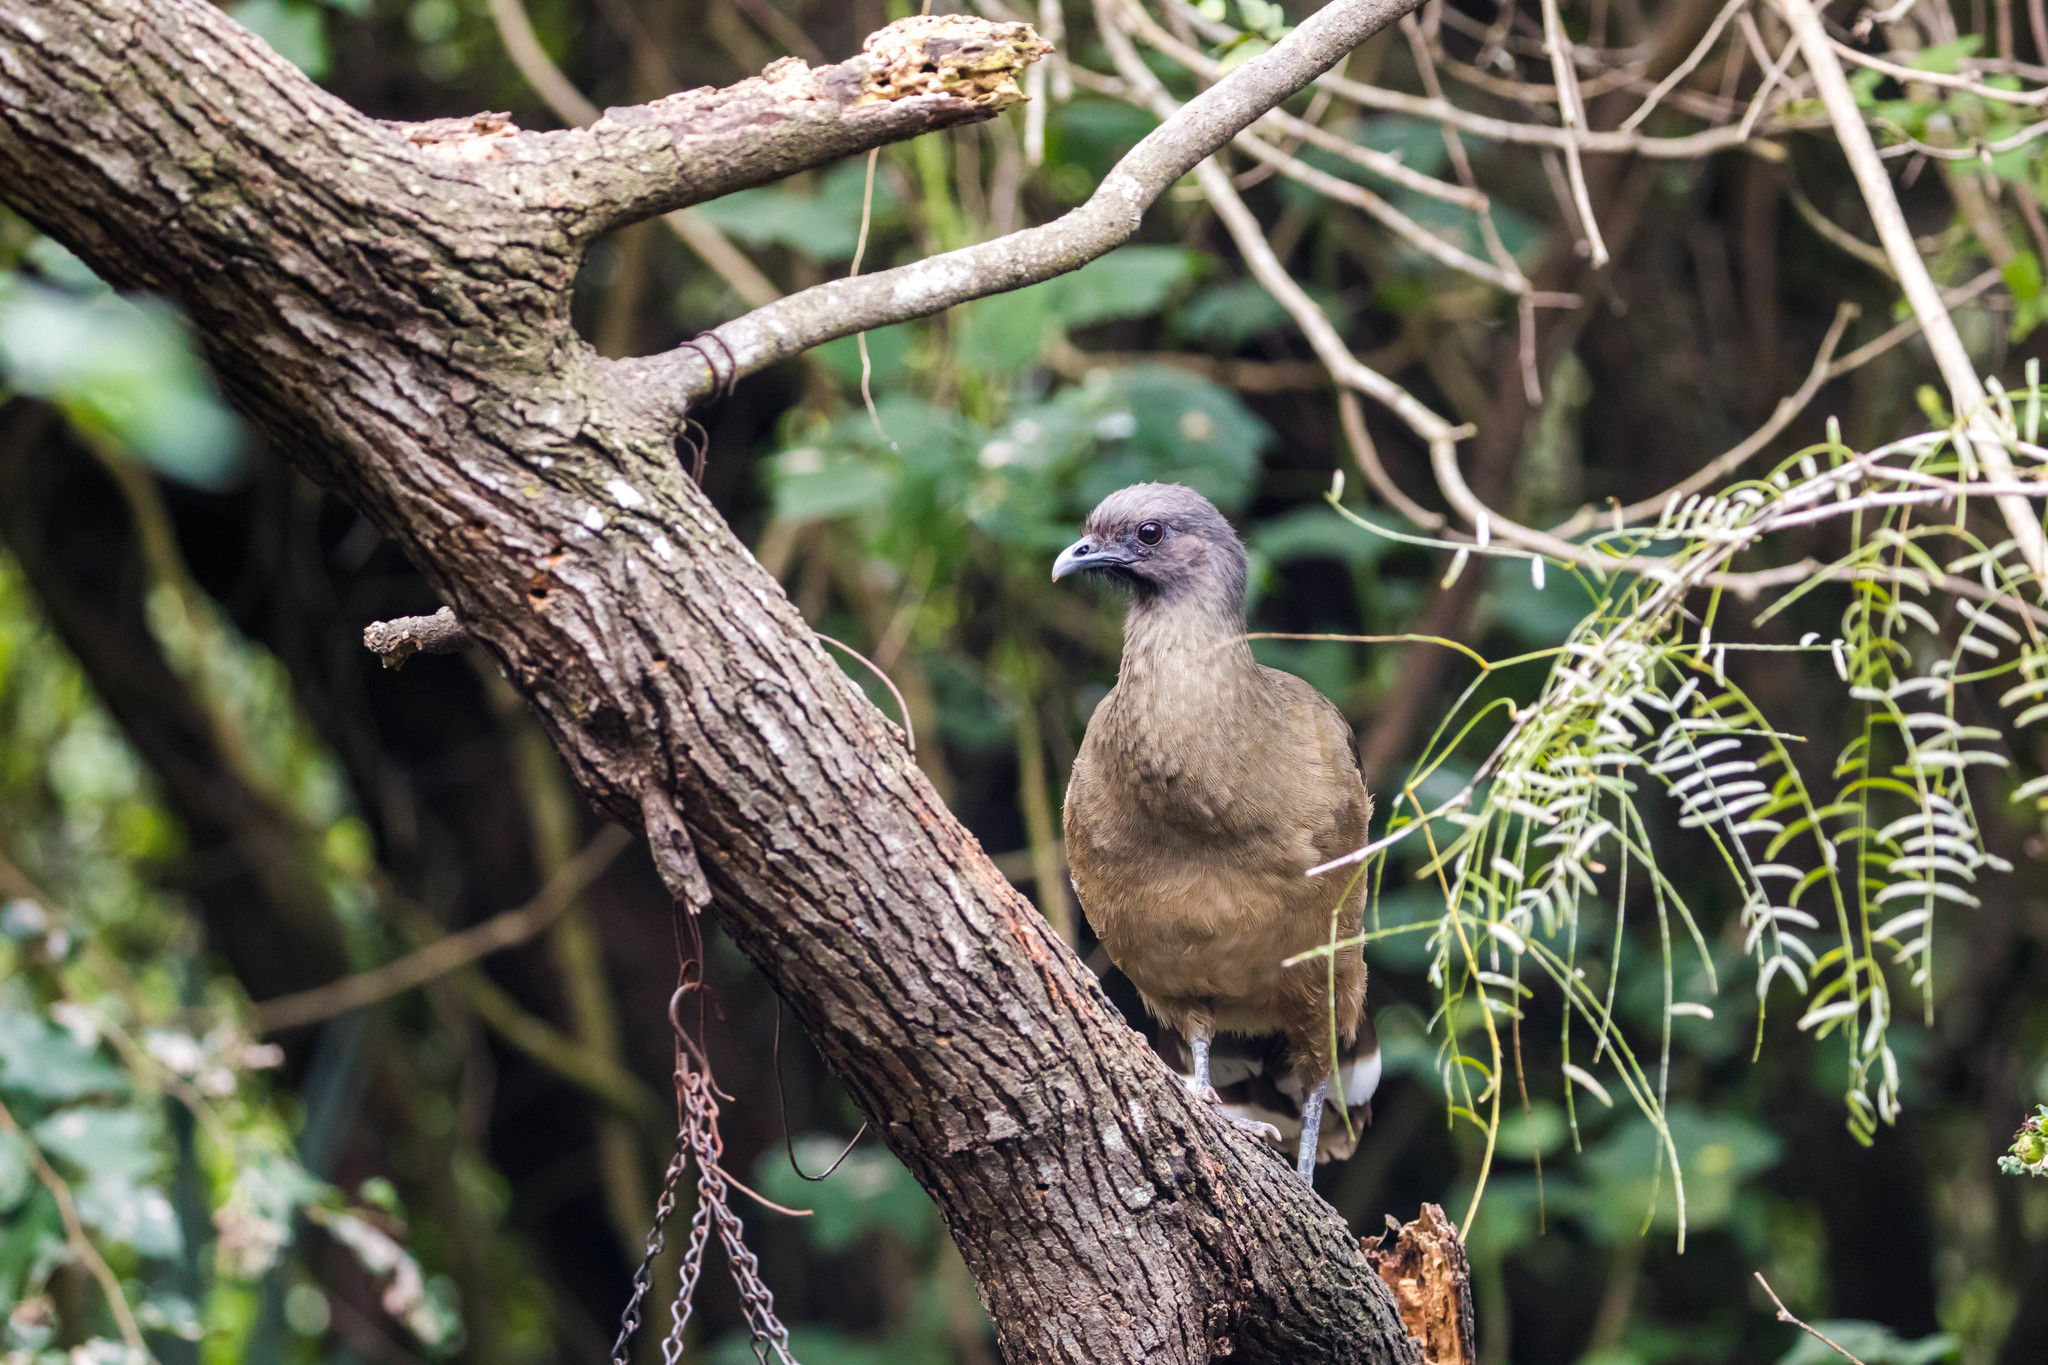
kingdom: Animalia
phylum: Chordata
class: Aves
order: Galliformes
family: Cracidae
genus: Ortalis
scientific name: Ortalis vetula
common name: Plain chachalaca
